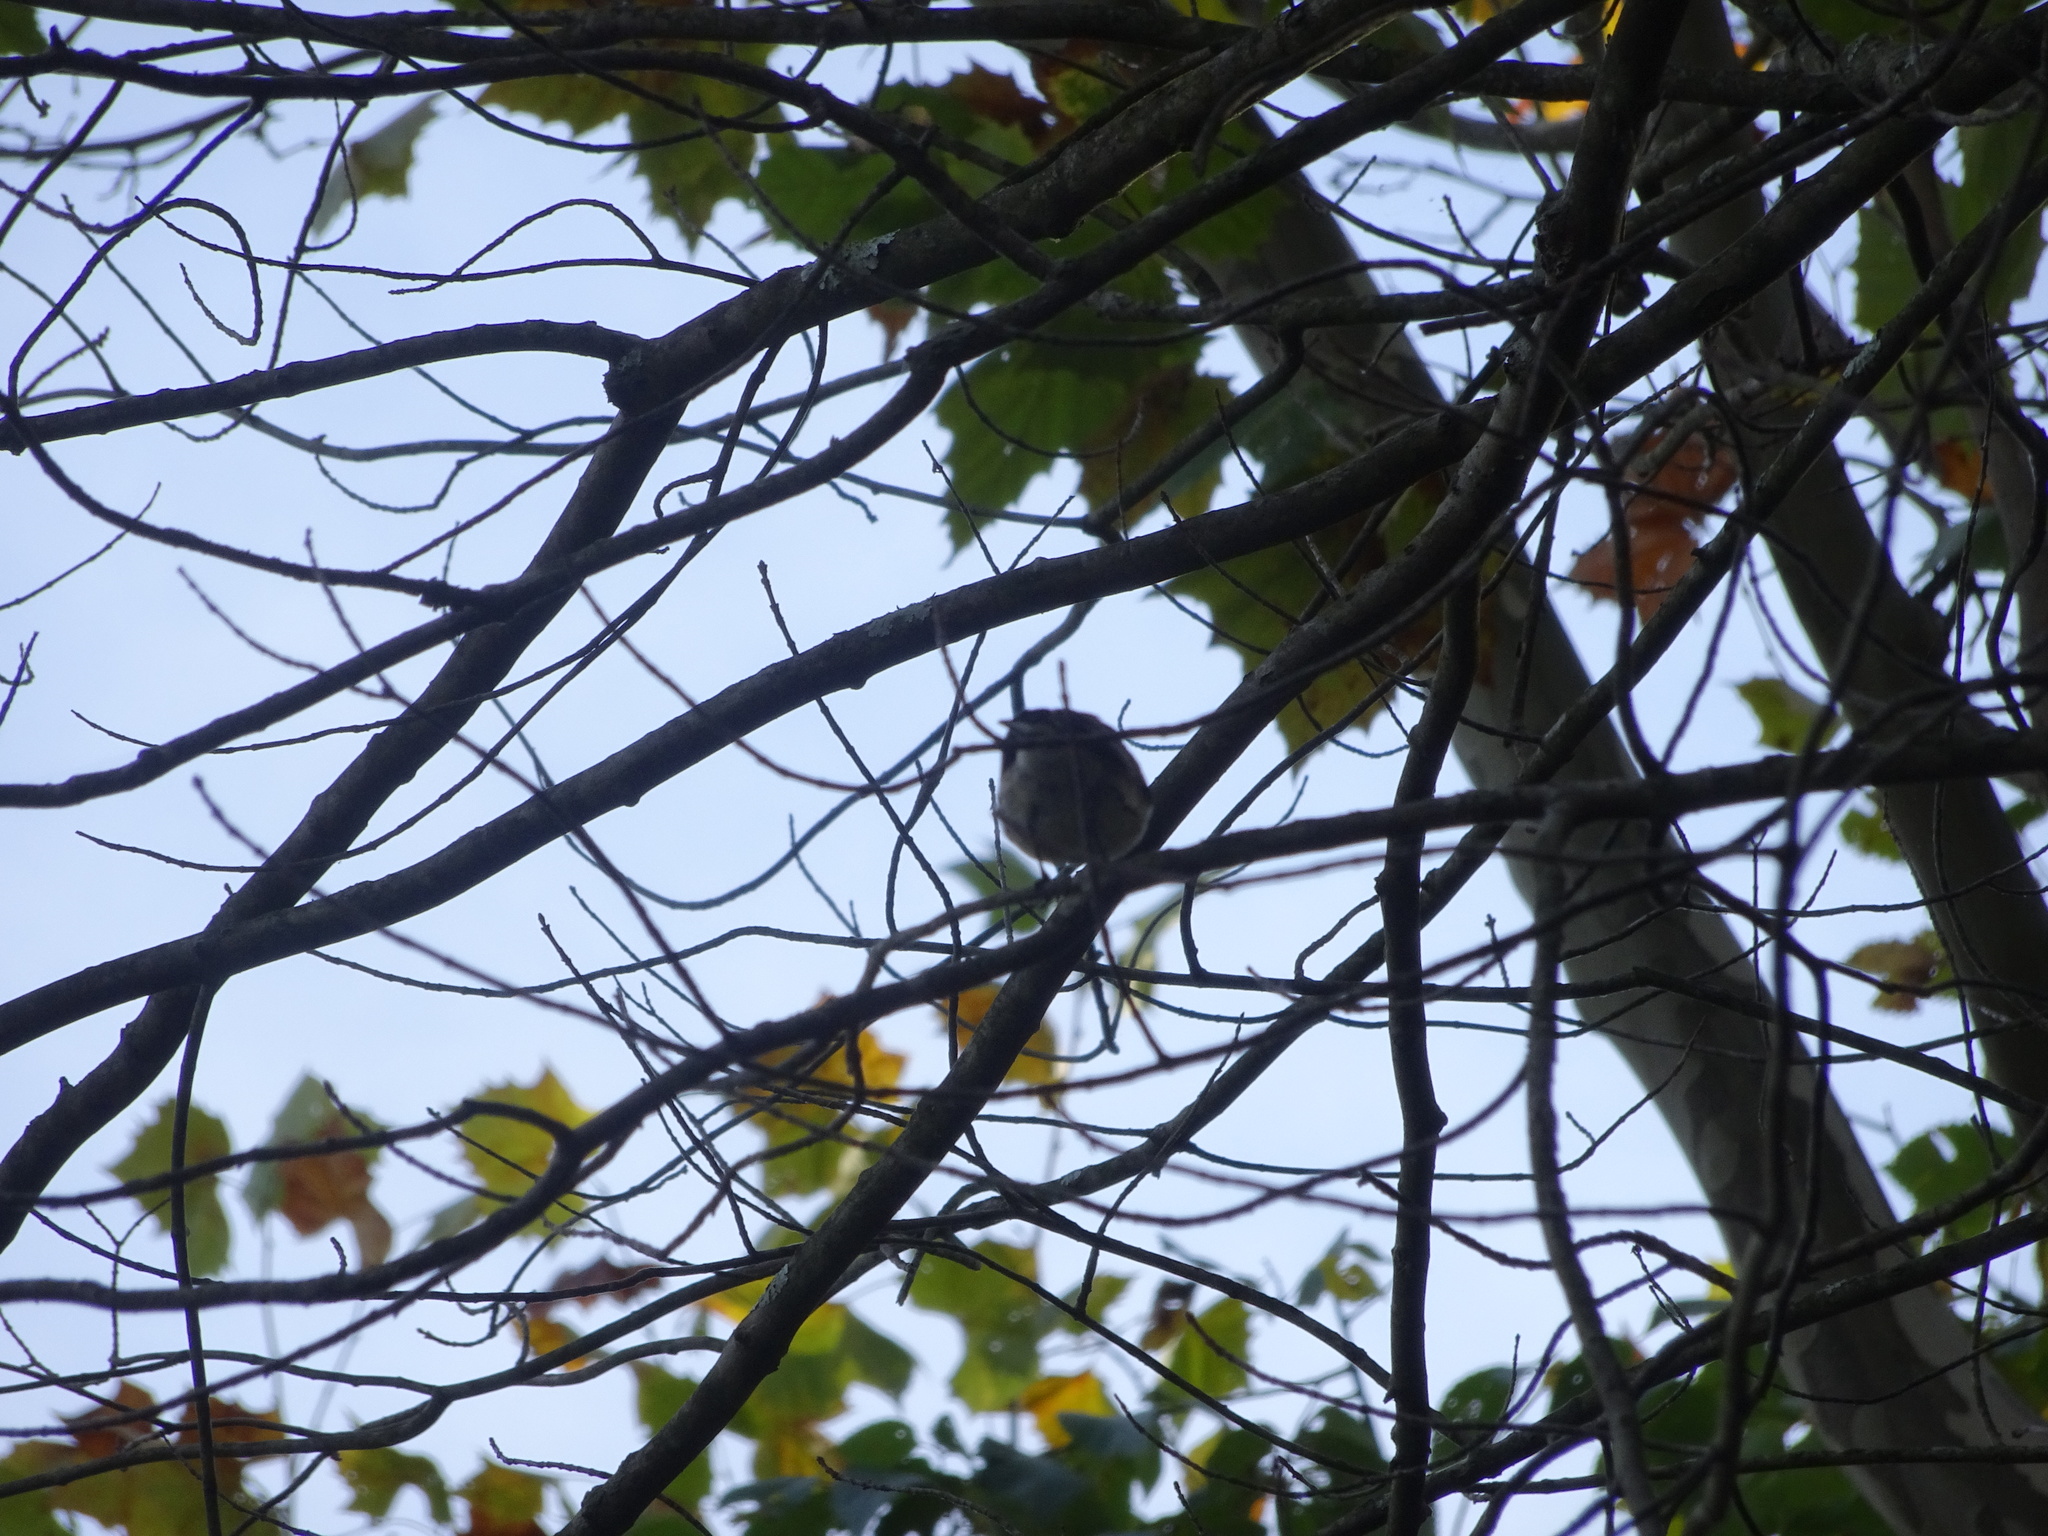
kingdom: Animalia
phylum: Chordata
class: Aves
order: Passeriformes
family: Parulidae
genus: Setophaga
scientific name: Setophaga coronata
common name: Myrtle warbler
